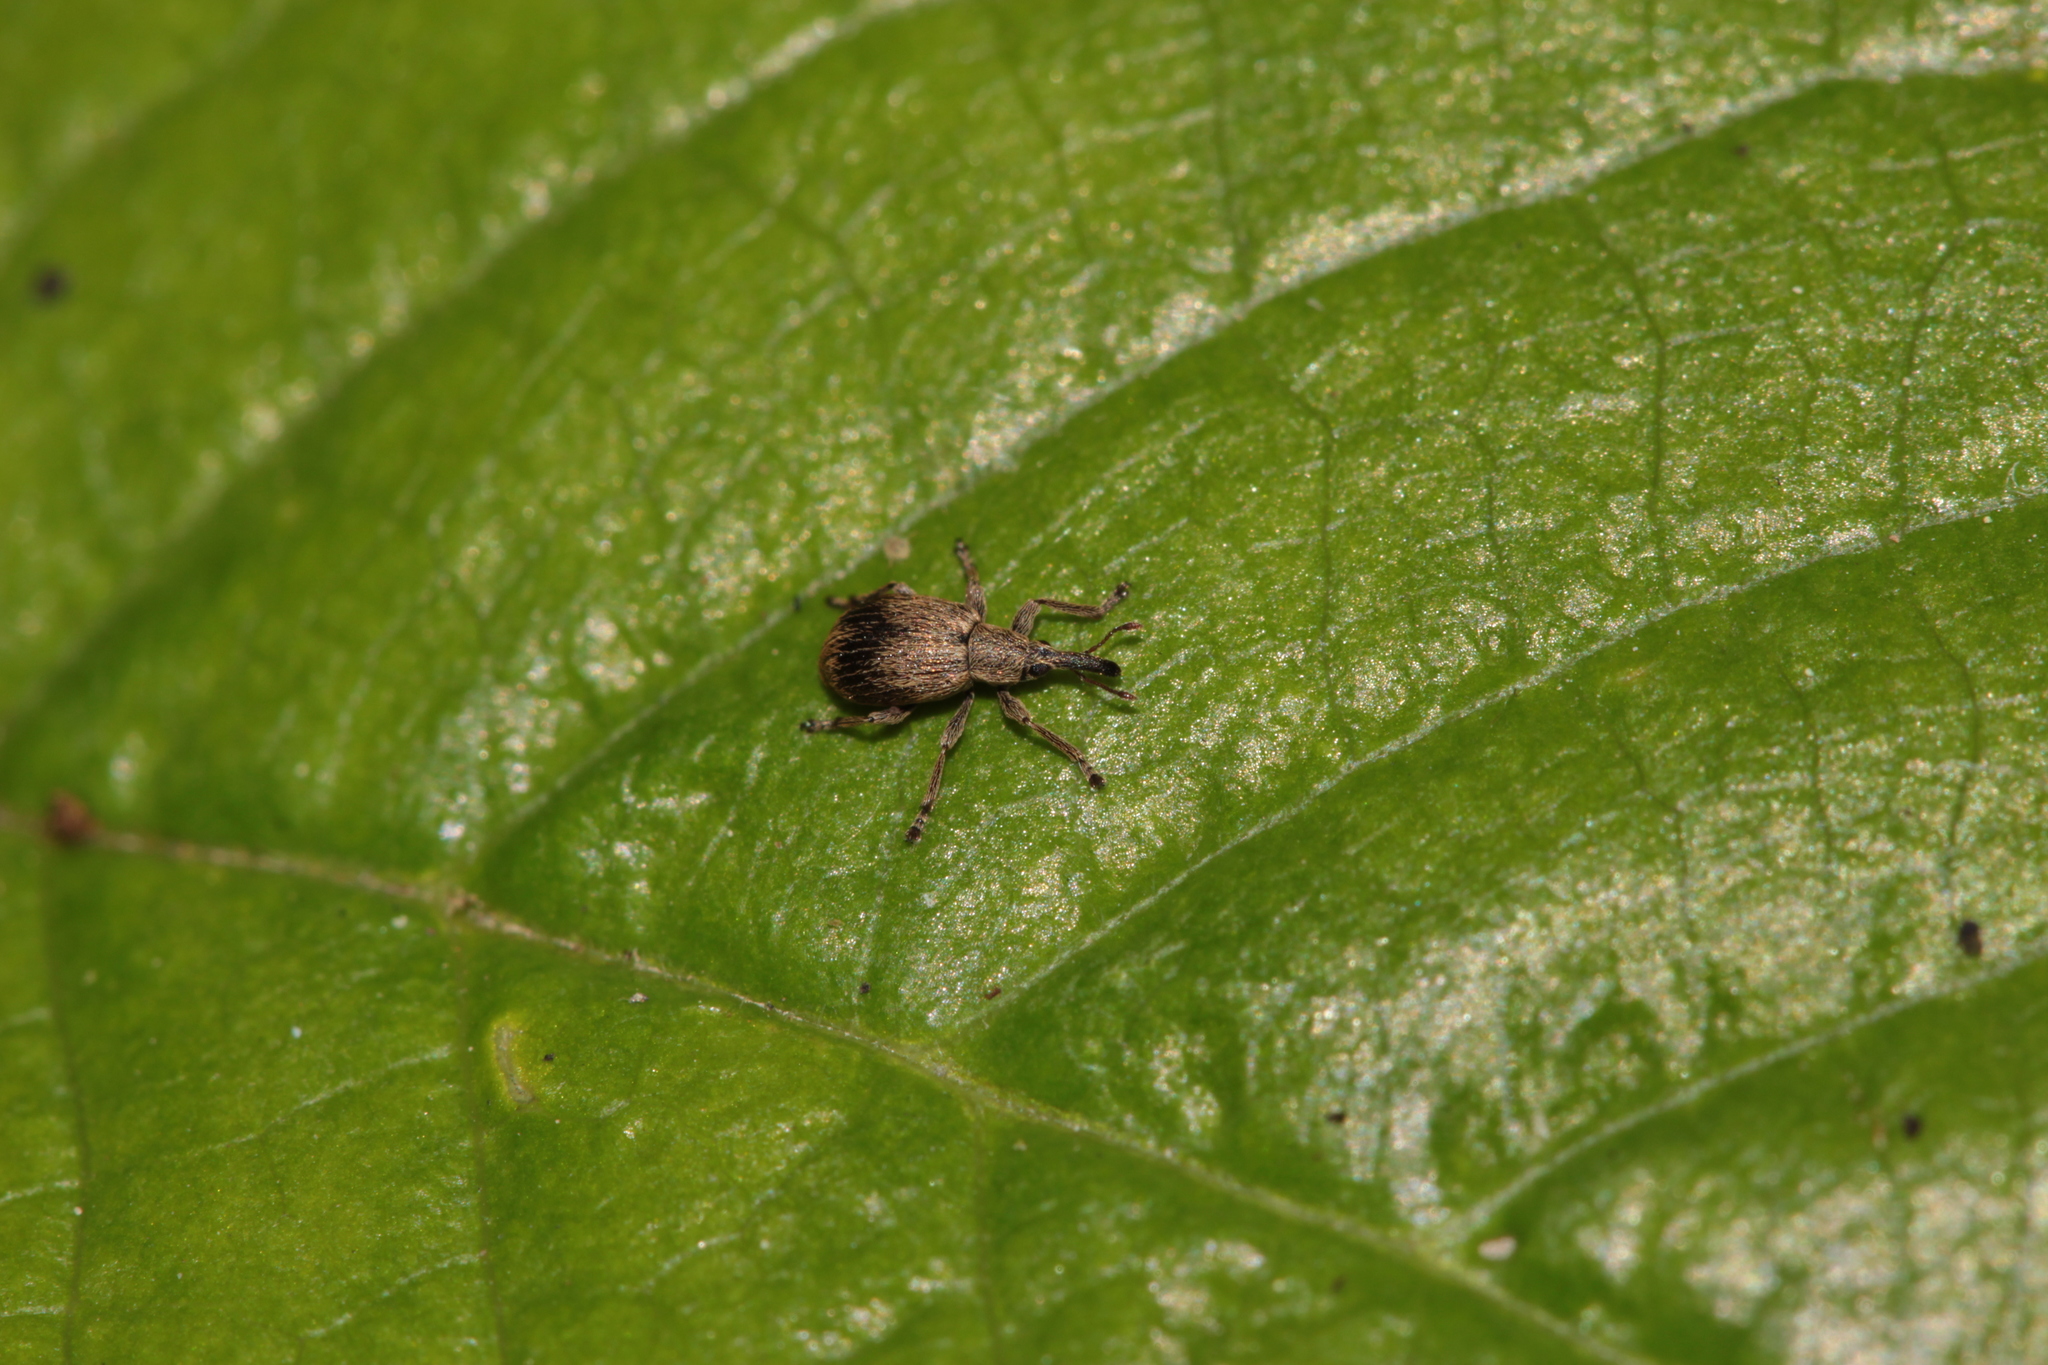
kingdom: Animalia
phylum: Arthropoda
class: Insecta
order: Coleoptera
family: Apionidae
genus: Trichopterapion
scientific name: Trichopterapion holosericeum
